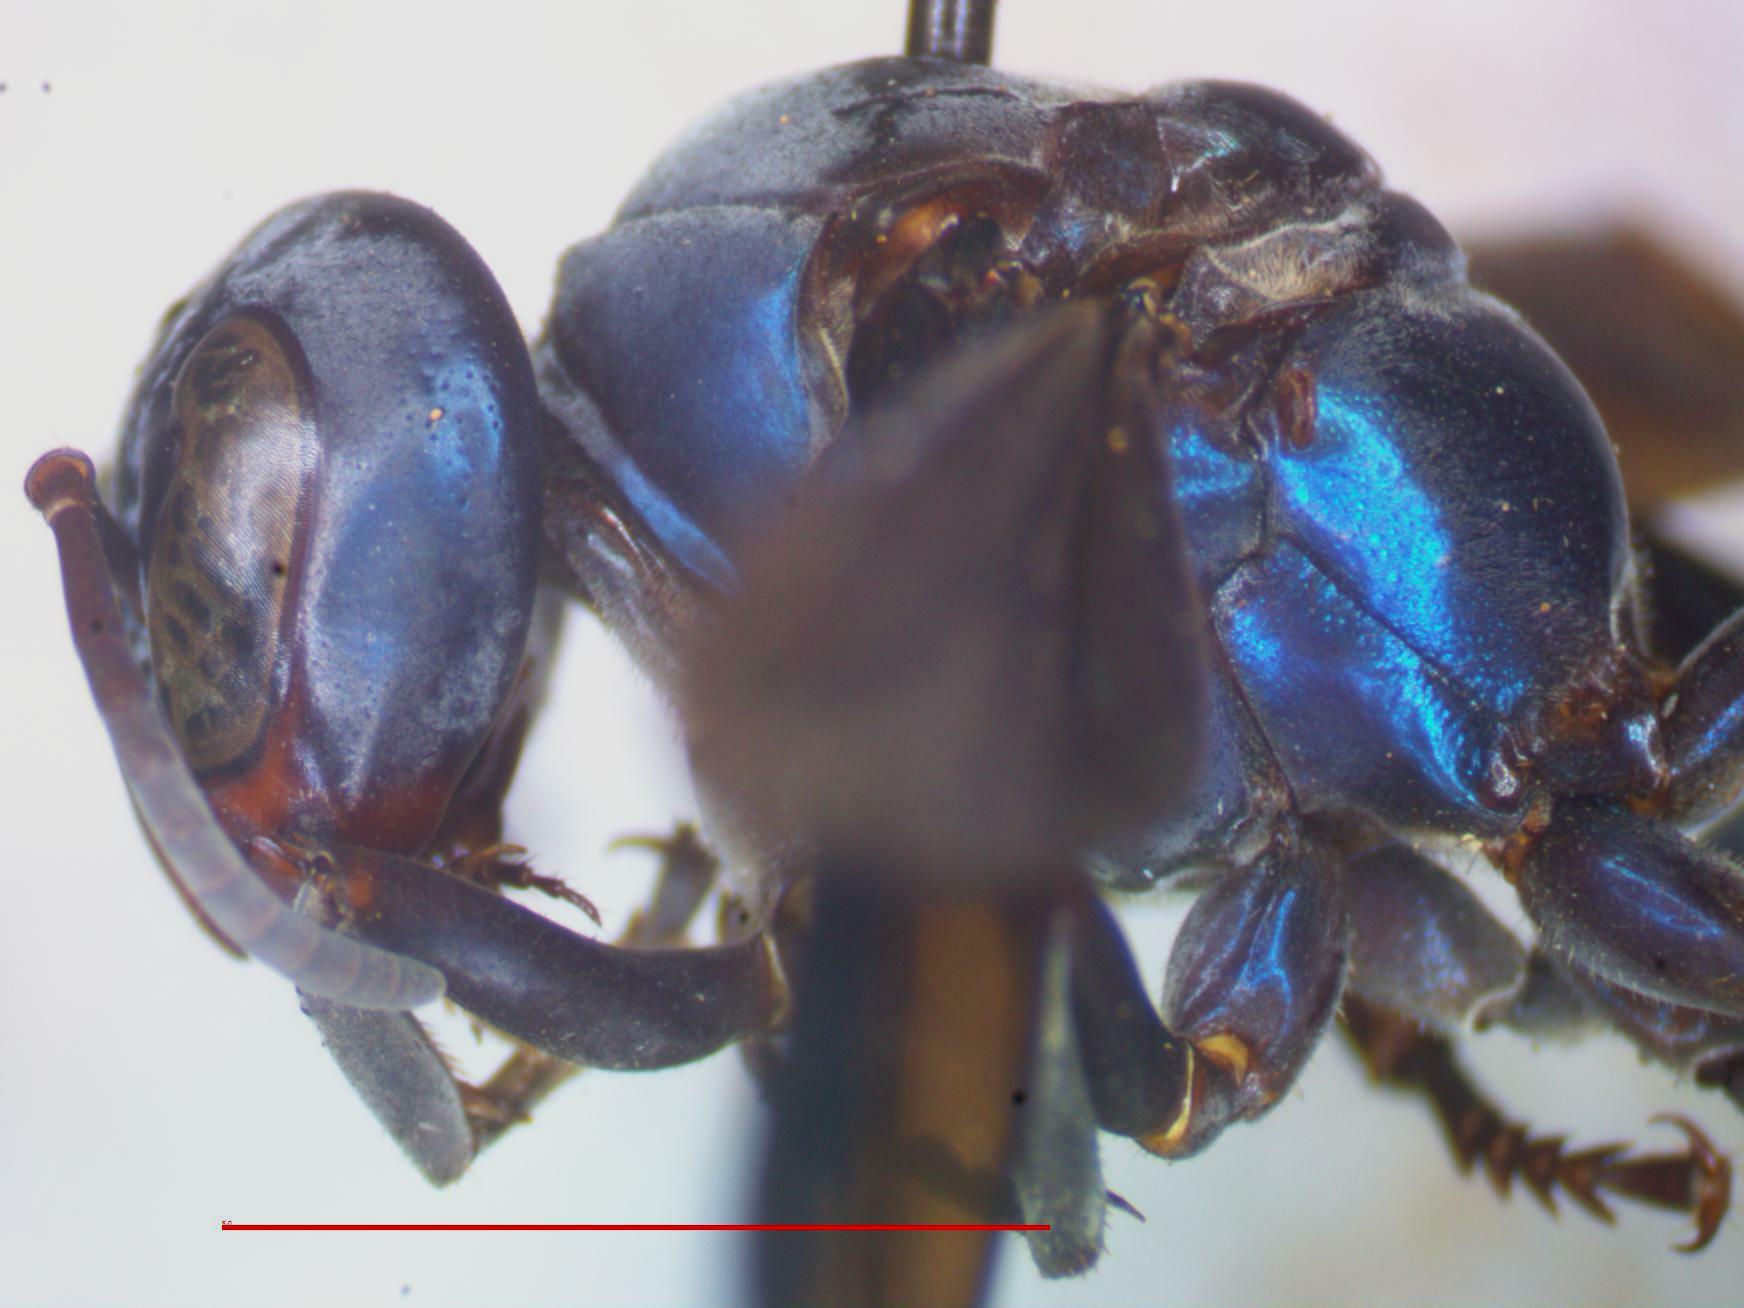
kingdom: Animalia
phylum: Arthropoda
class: Insecta
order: Hymenoptera
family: Vespidae
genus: Synoeca
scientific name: Synoeca septentrionalis
